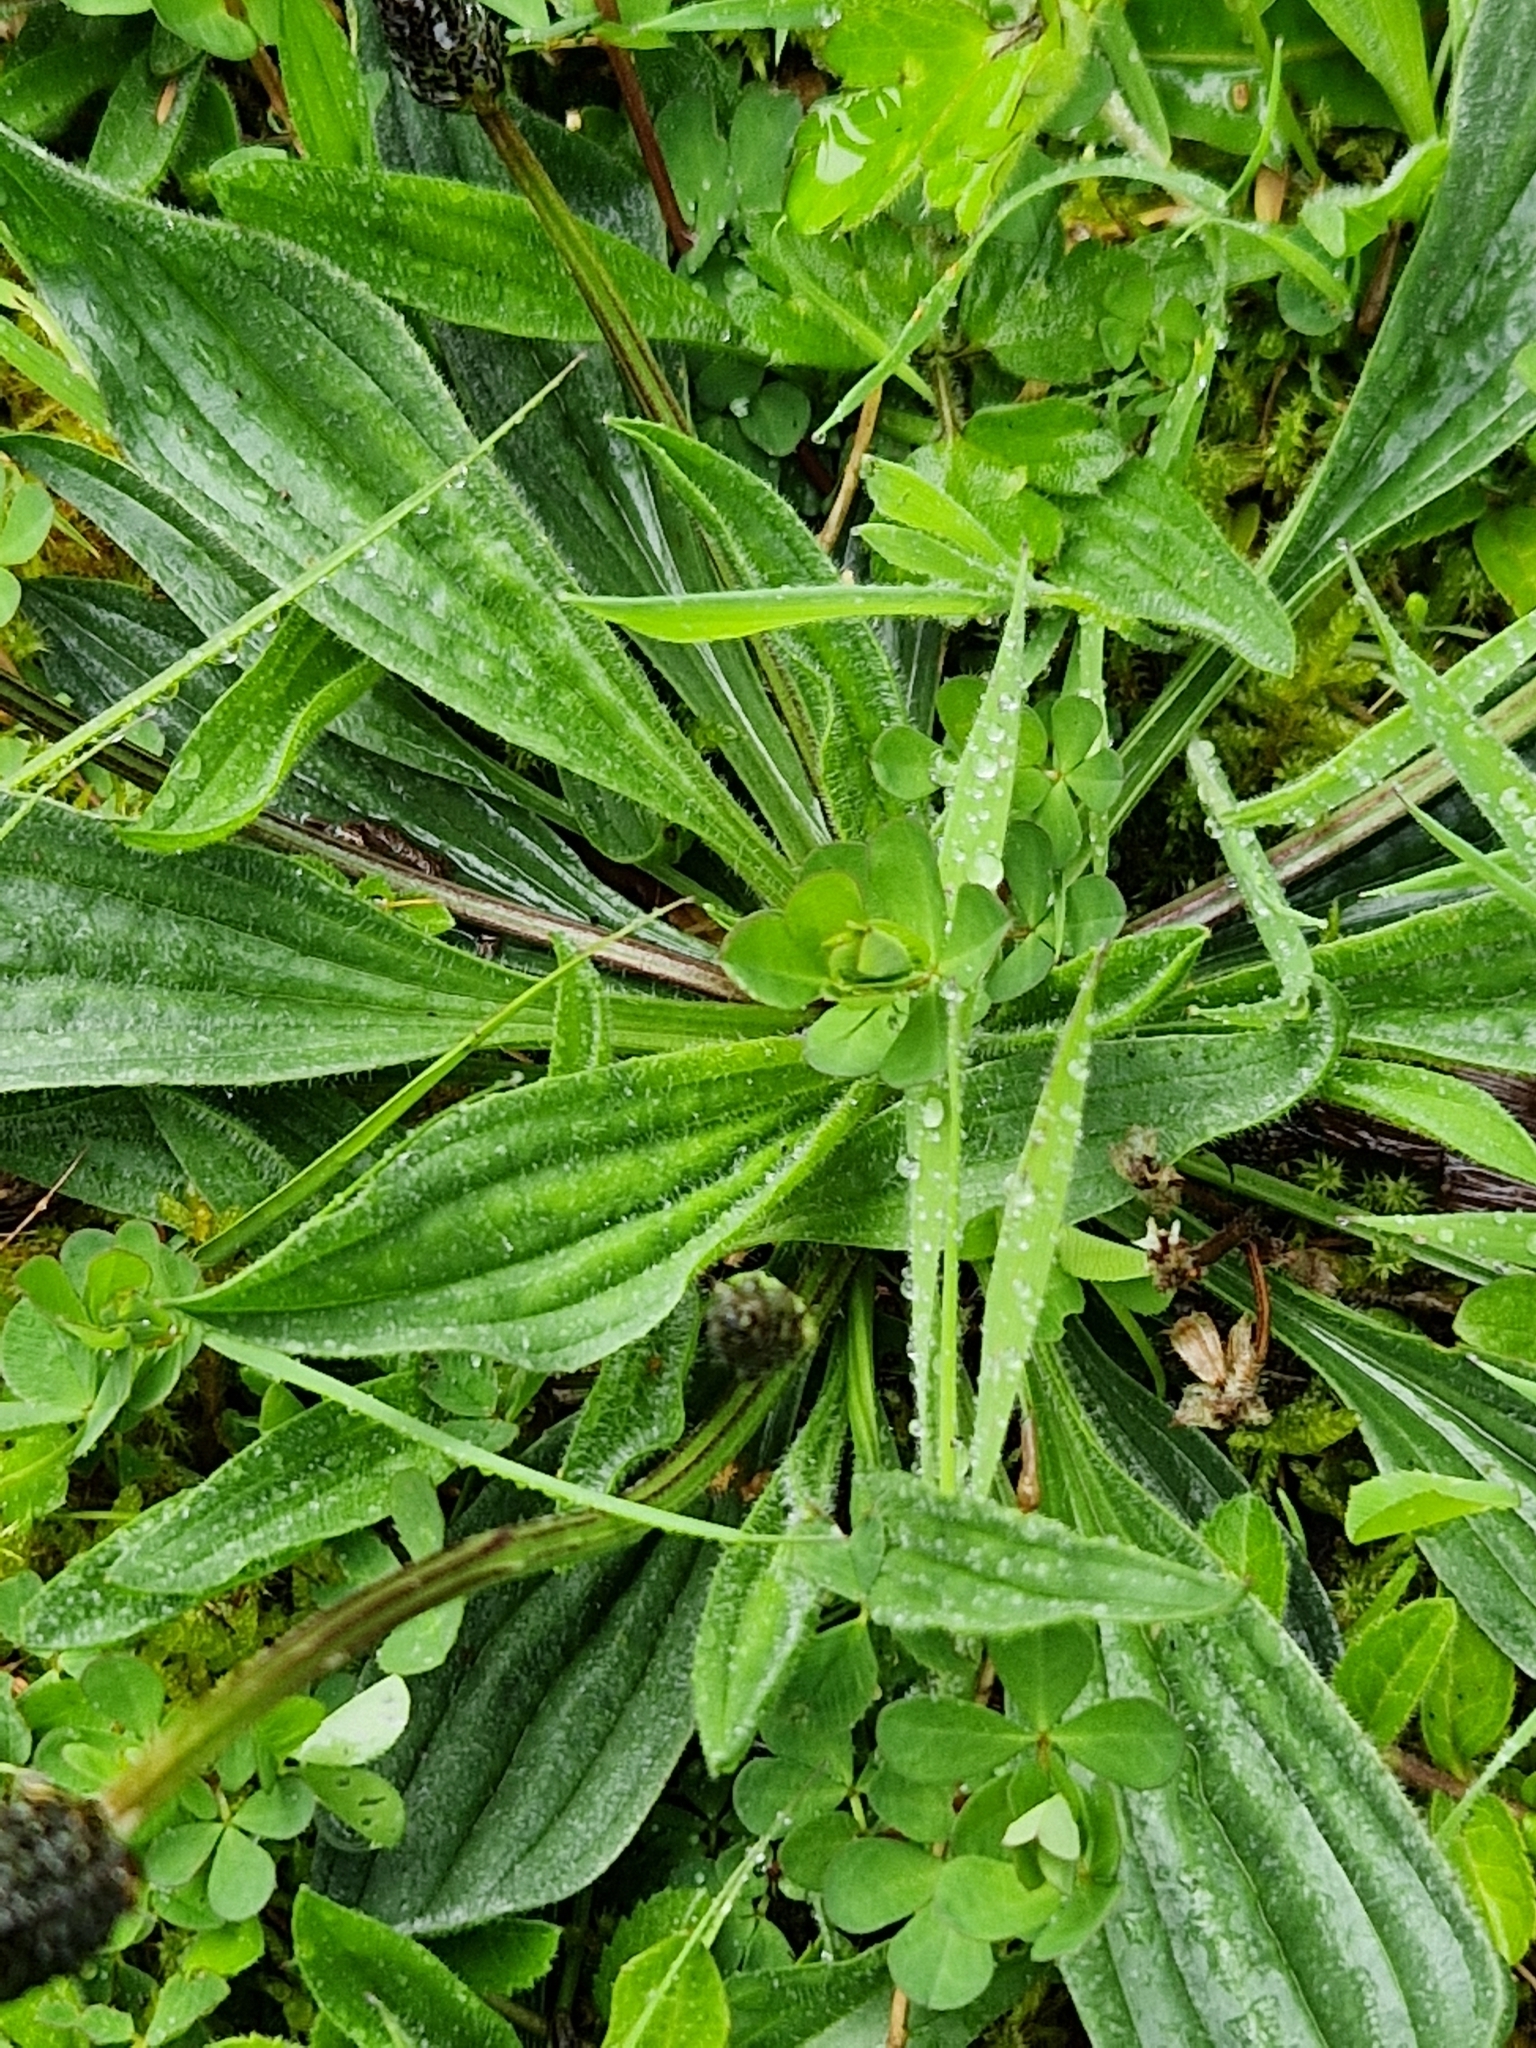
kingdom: Plantae
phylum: Tracheophyta
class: Magnoliopsida
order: Lamiales
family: Plantaginaceae
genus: Plantago
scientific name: Plantago lanceolata
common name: Ribwort plantain
